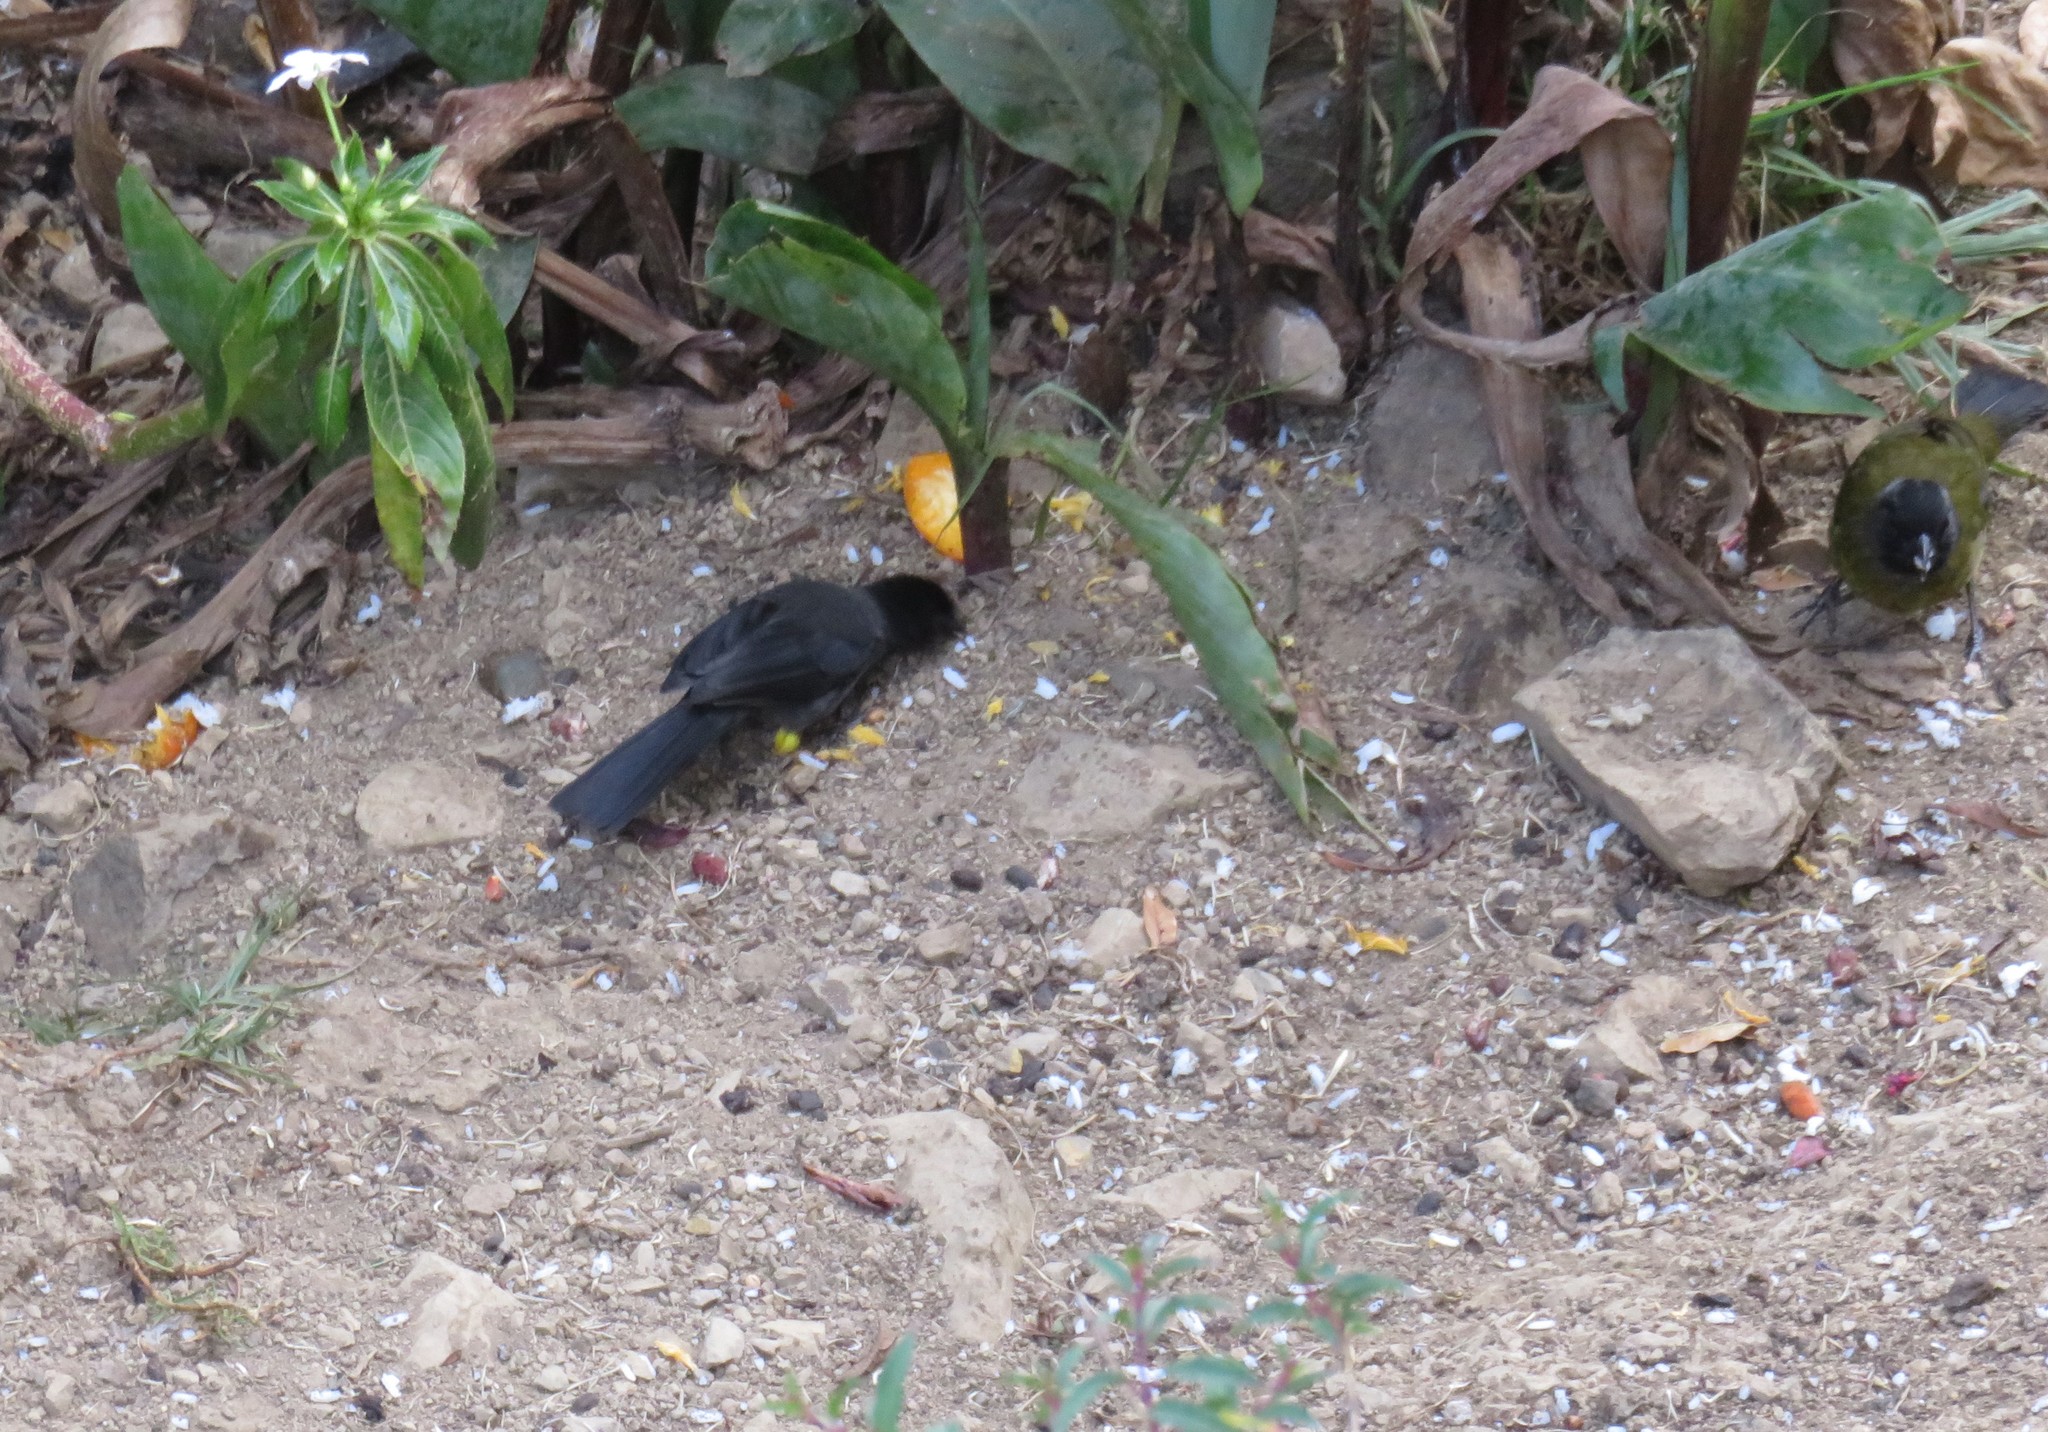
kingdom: Animalia
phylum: Chordata
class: Aves
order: Passeriformes
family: Passerellidae
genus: Atlapetes
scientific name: Atlapetes tibialis
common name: Yellow-thighed brushfinch
